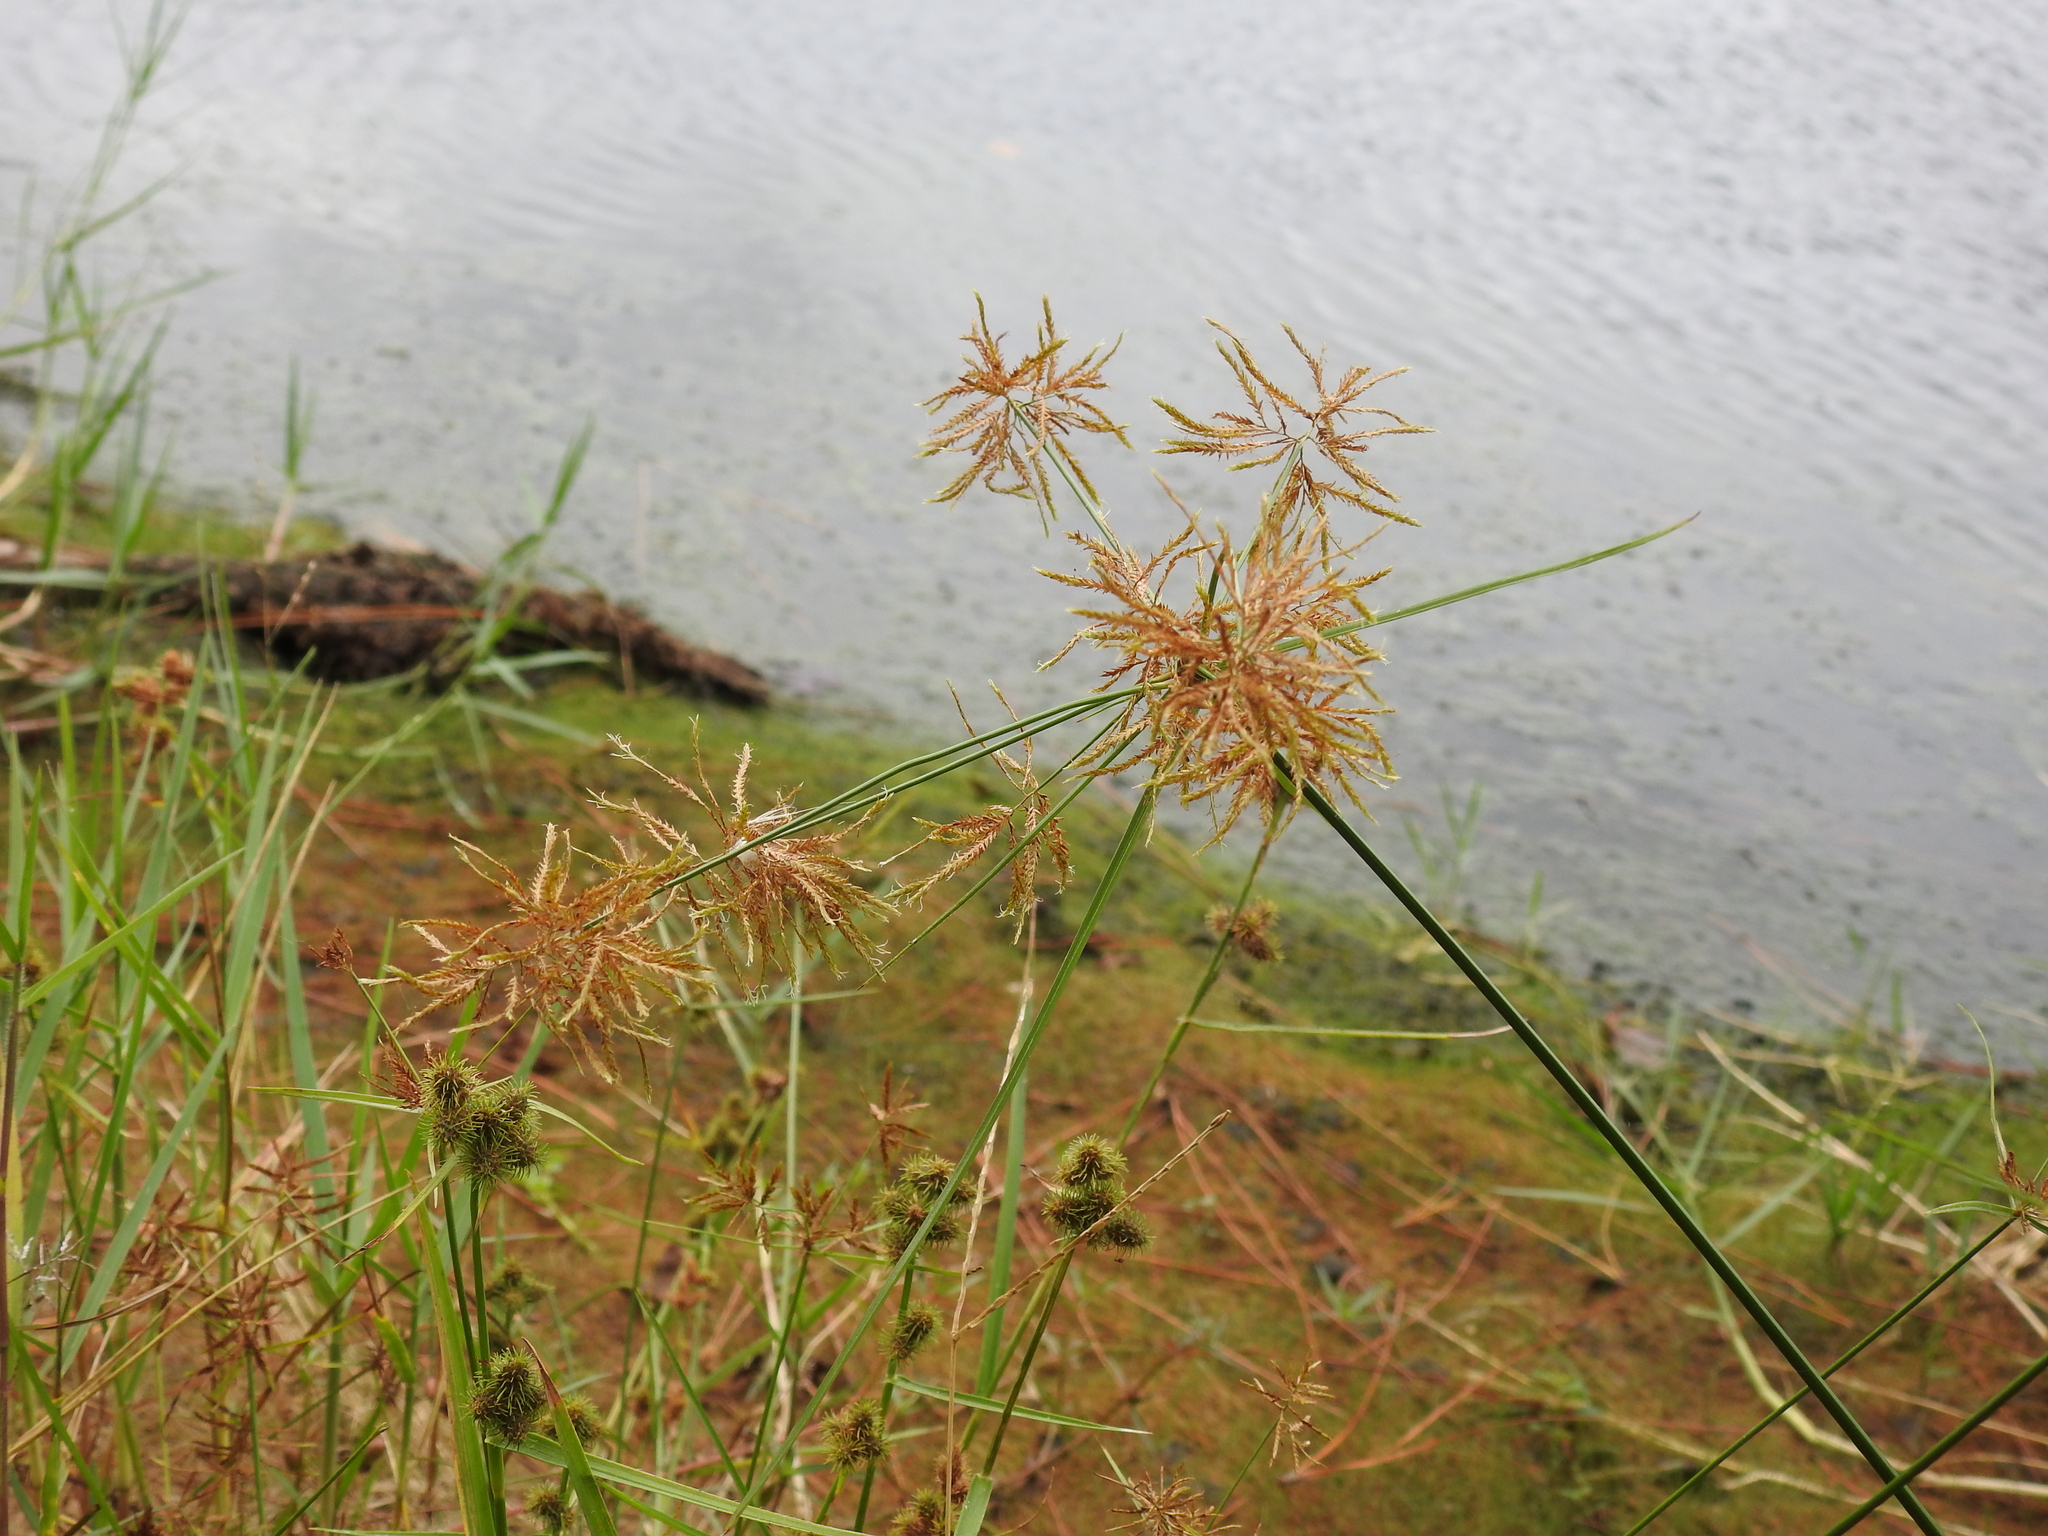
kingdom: Plantae
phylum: Tracheophyta
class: Liliopsida
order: Poales
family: Cyperaceae
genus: Cyperus
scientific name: Cyperus polystachyos
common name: Bunchy flat sedge
